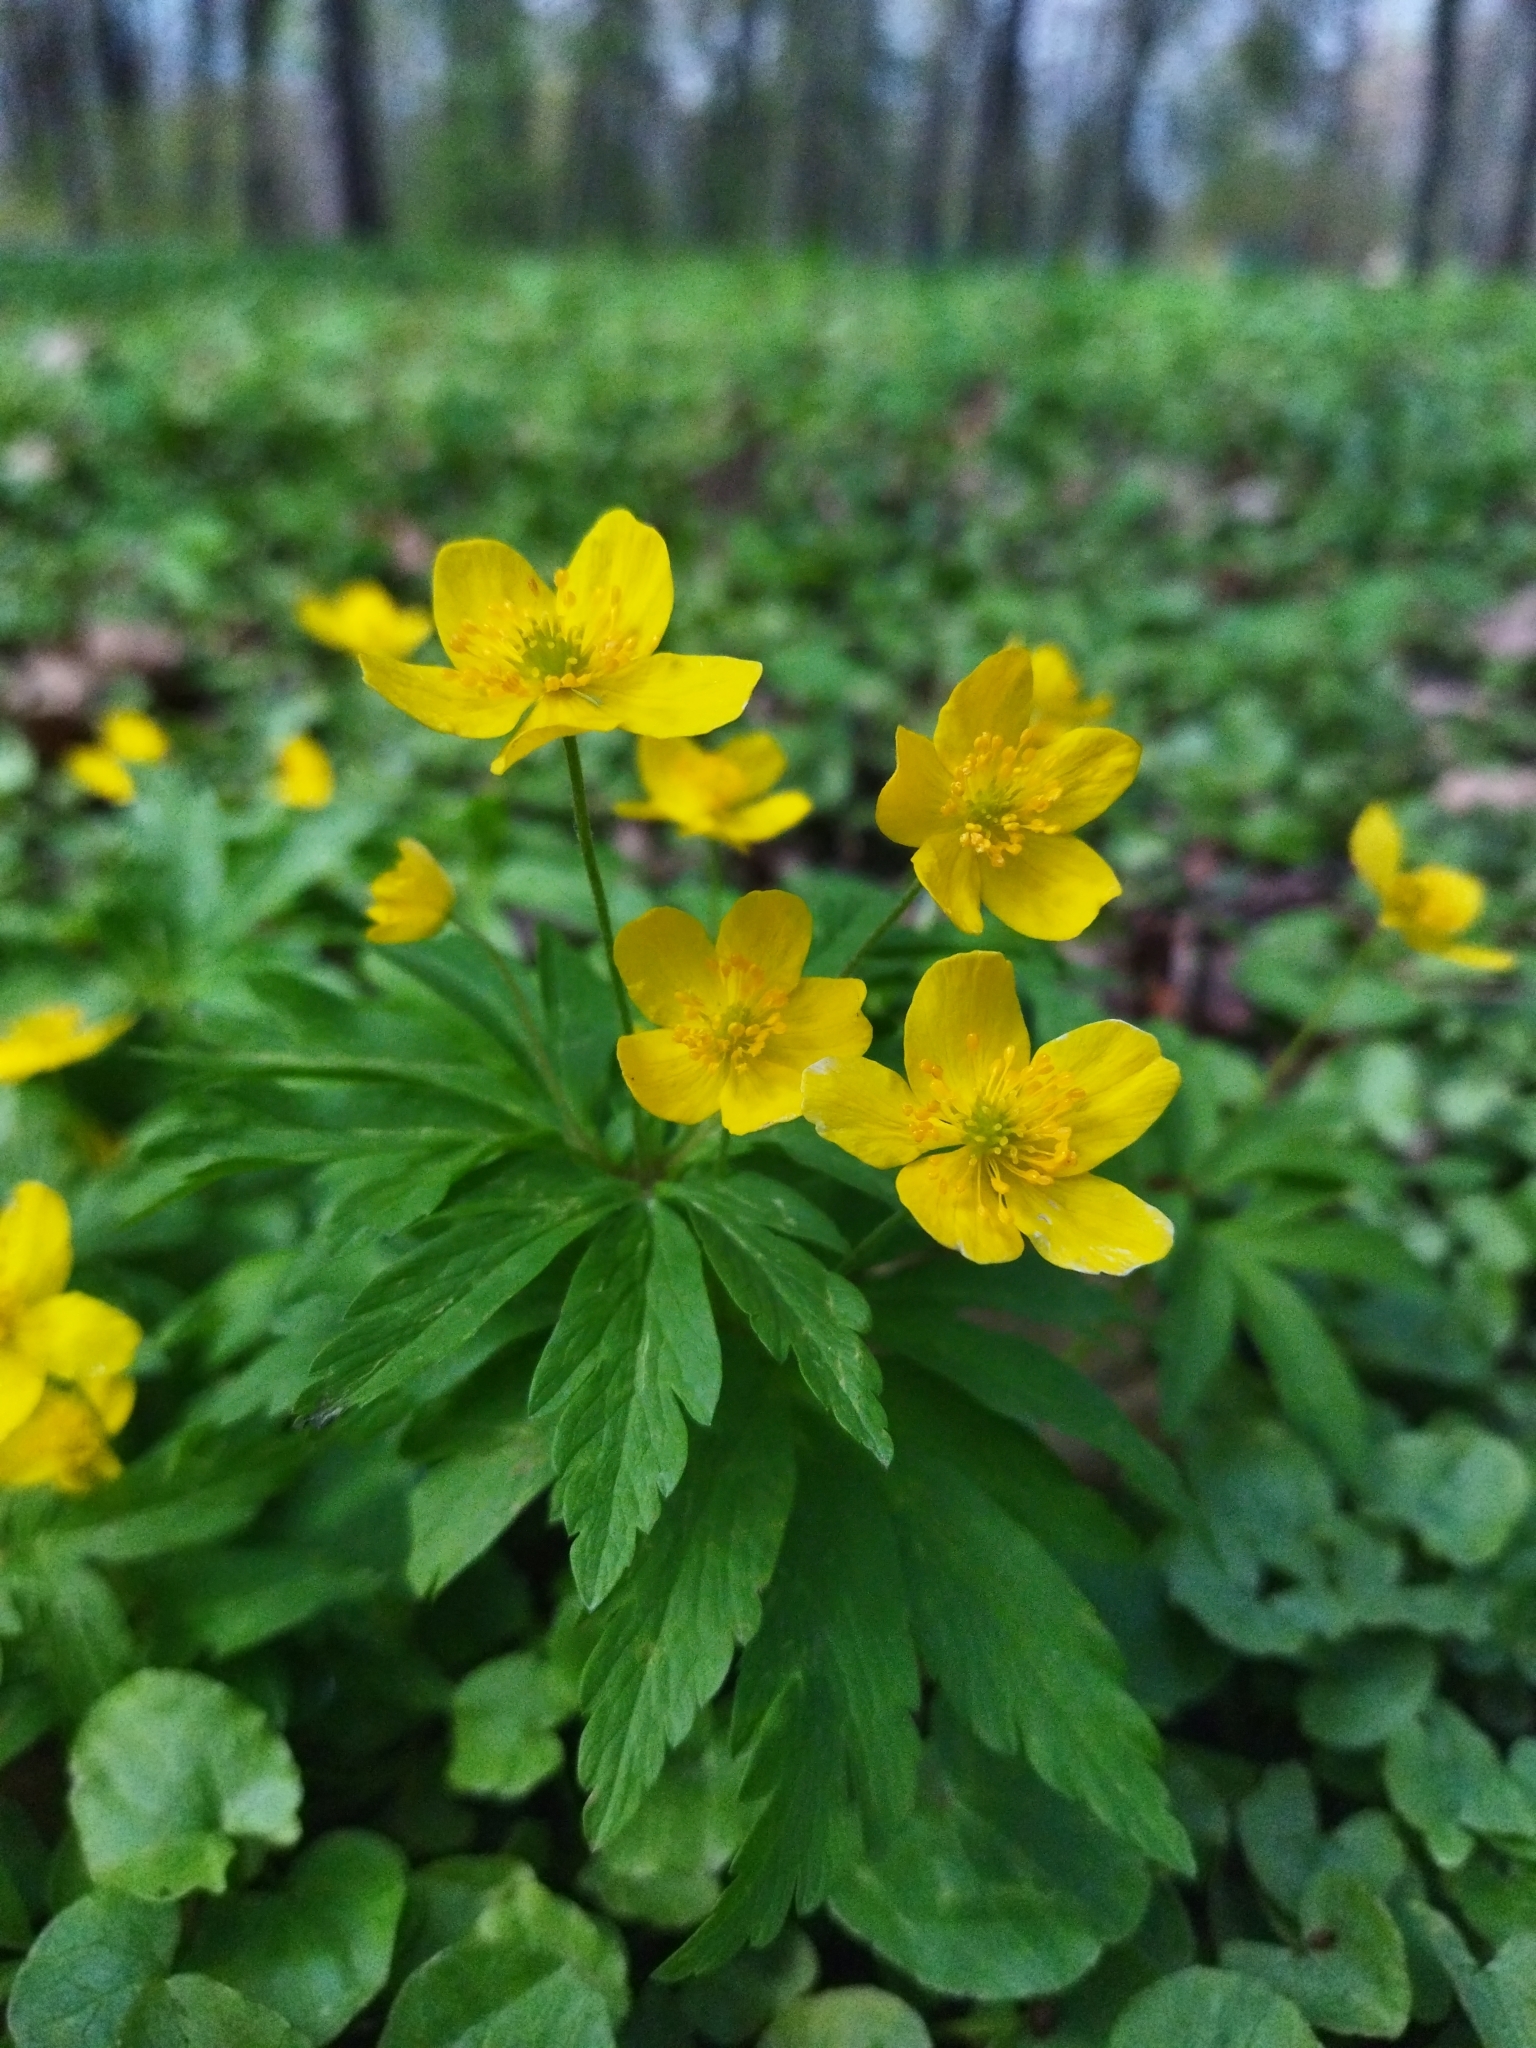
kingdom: Plantae
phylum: Tracheophyta
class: Magnoliopsida
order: Ranunculales
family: Ranunculaceae
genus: Anemone
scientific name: Anemone ranunculoides
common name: Yellow anemone
